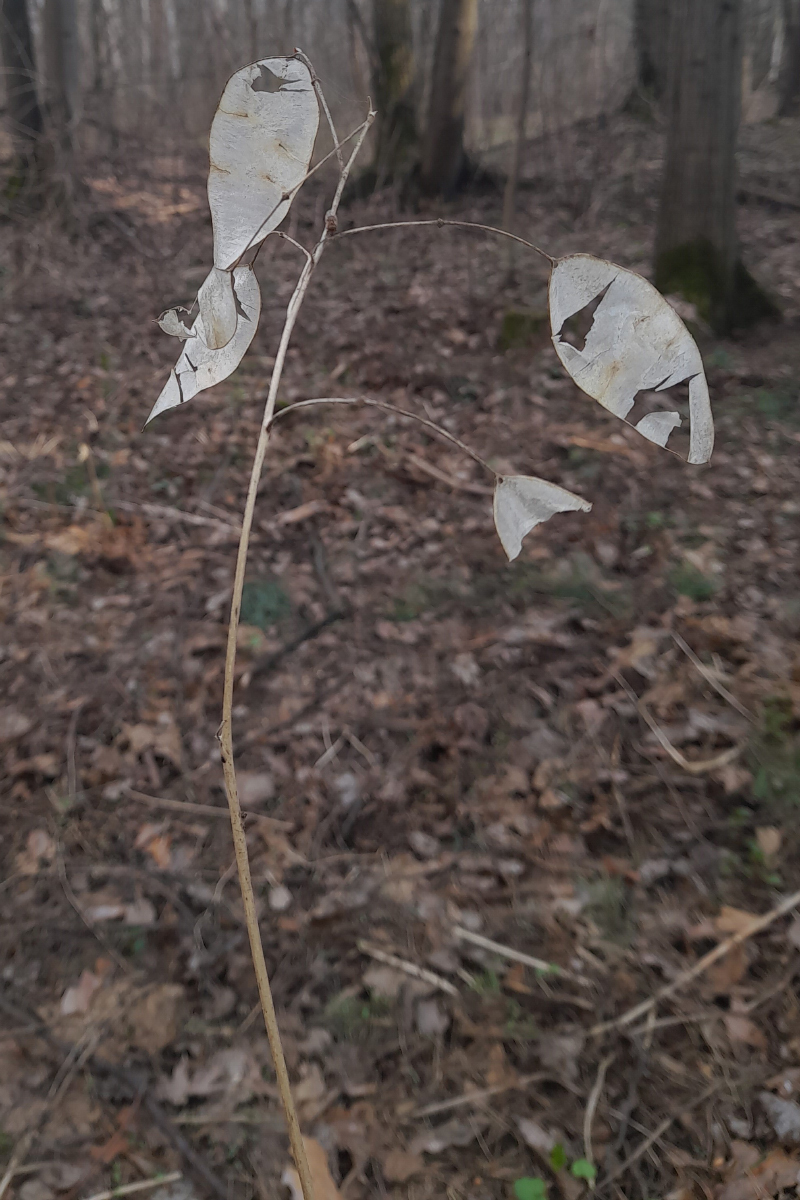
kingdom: Plantae
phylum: Tracheophyta
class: Magnoliopsida
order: Brassicales
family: Brassicaceae
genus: Lunaria
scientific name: Lunaria rediviva
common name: Perennial honesty
